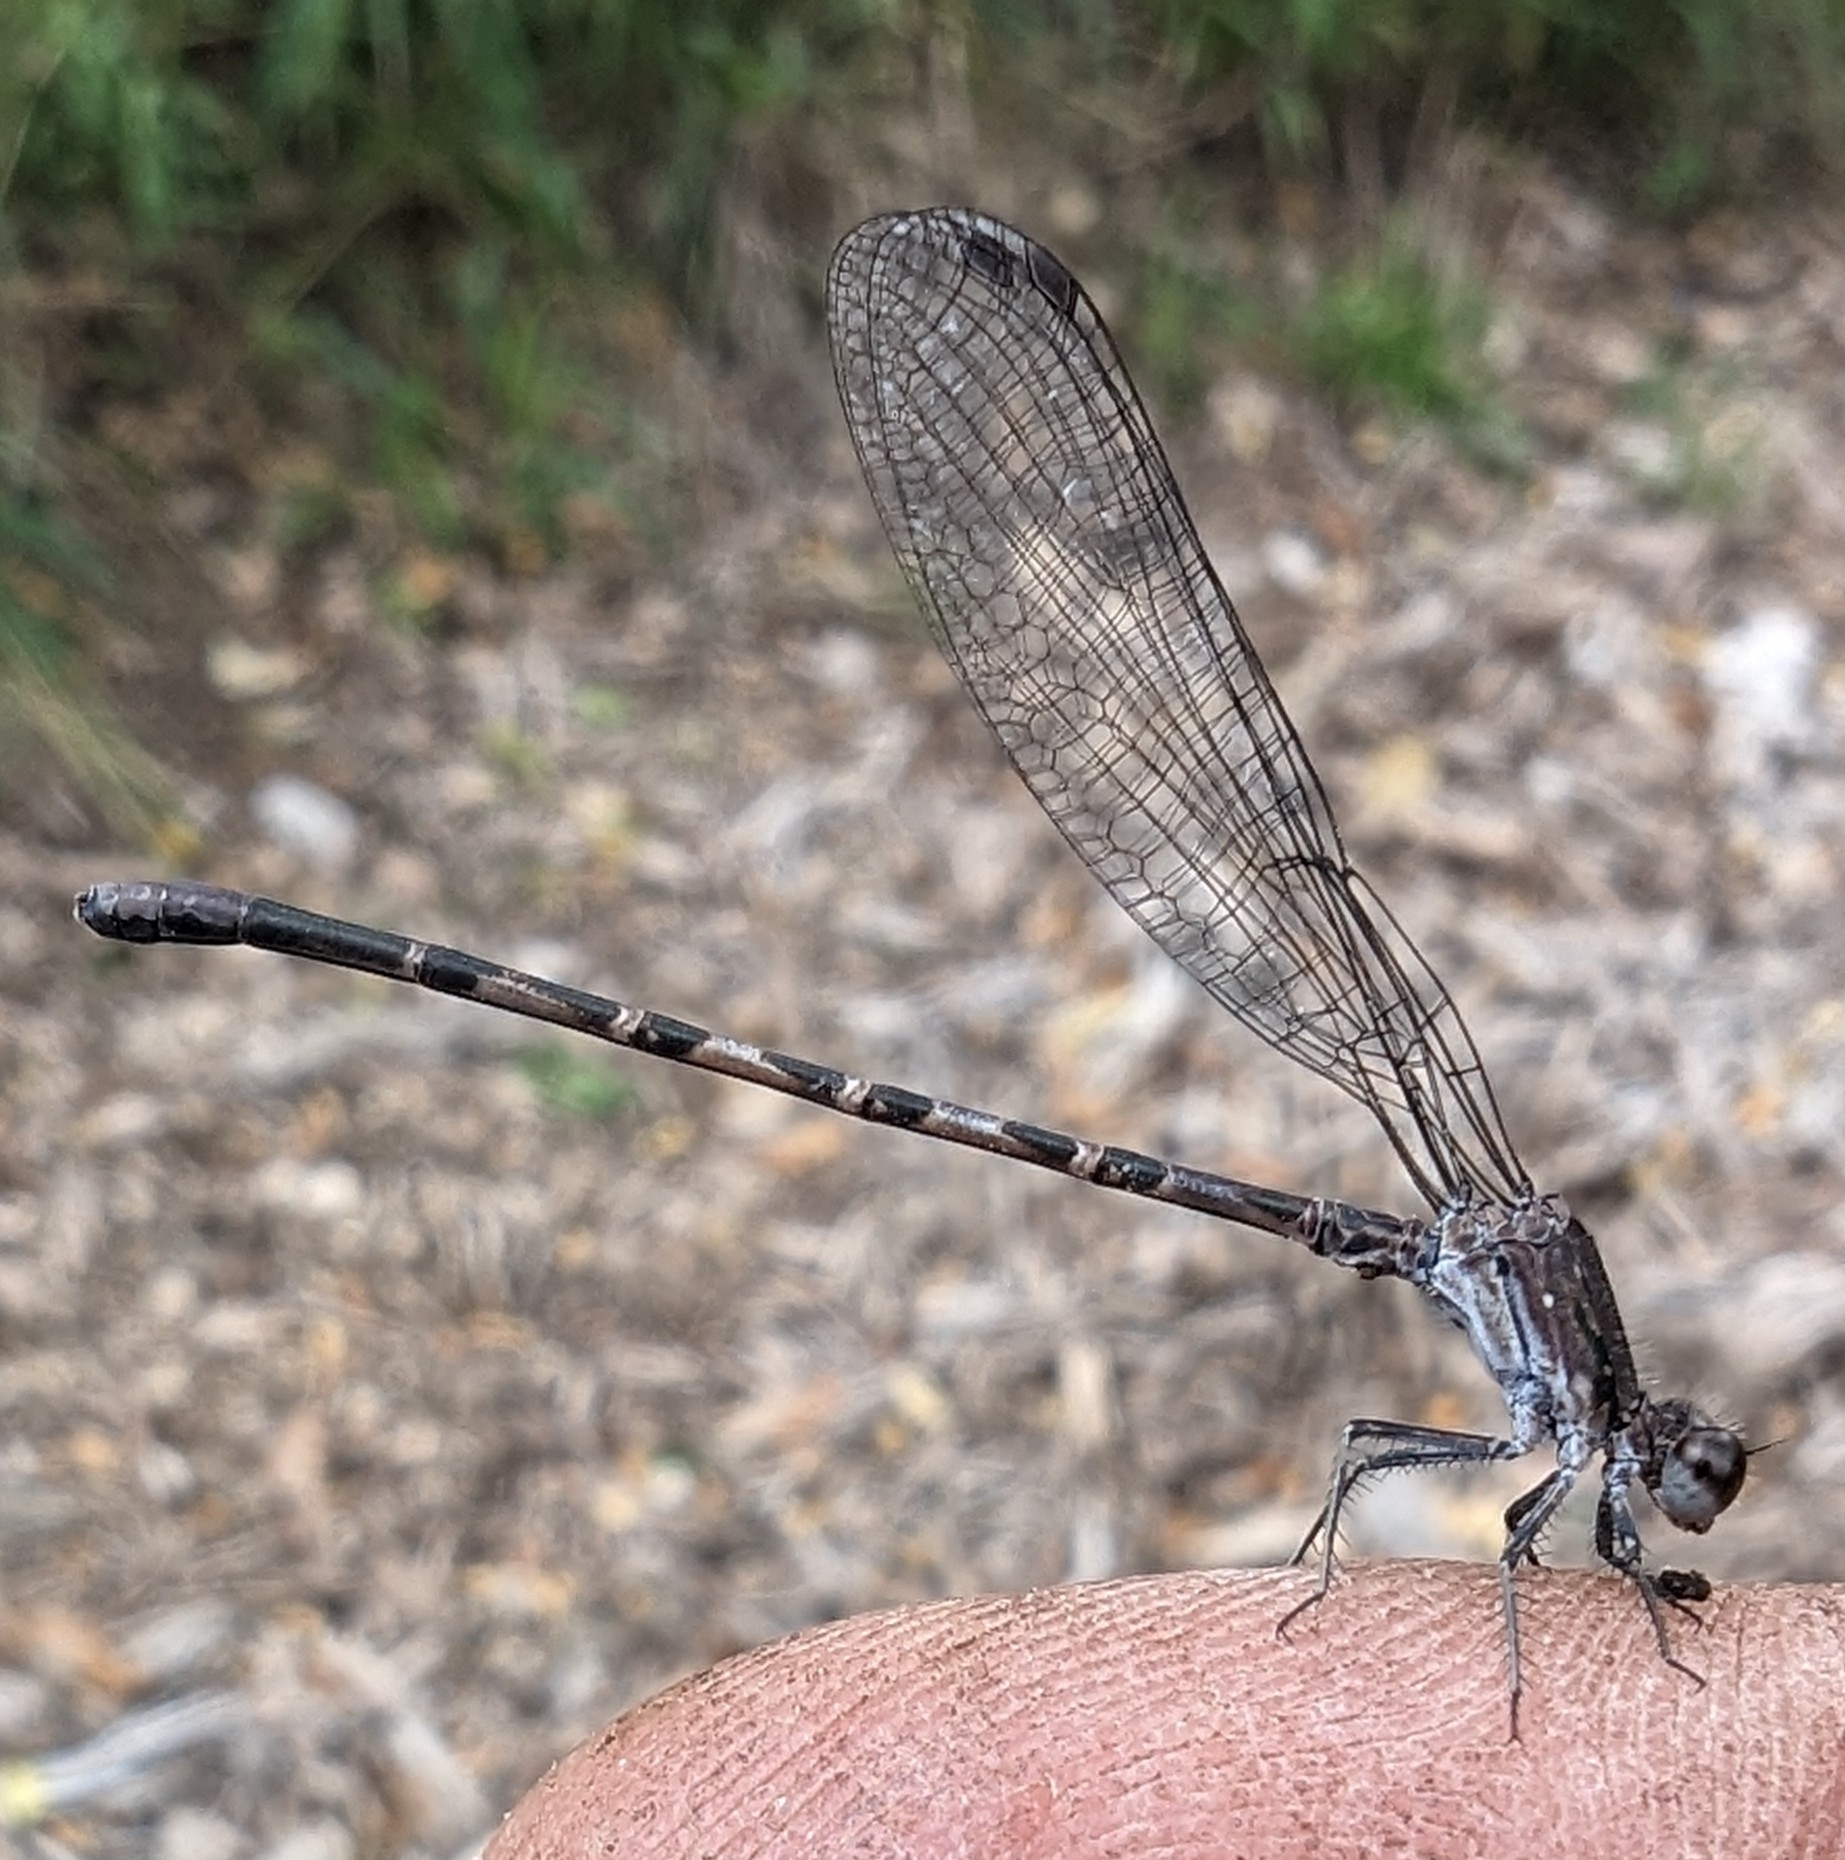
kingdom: Animalia
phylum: Arthropoda
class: Insecta
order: Odonata
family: Coenagrionidae
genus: Argia
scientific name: Argia immunda
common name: Kiowa dancer
